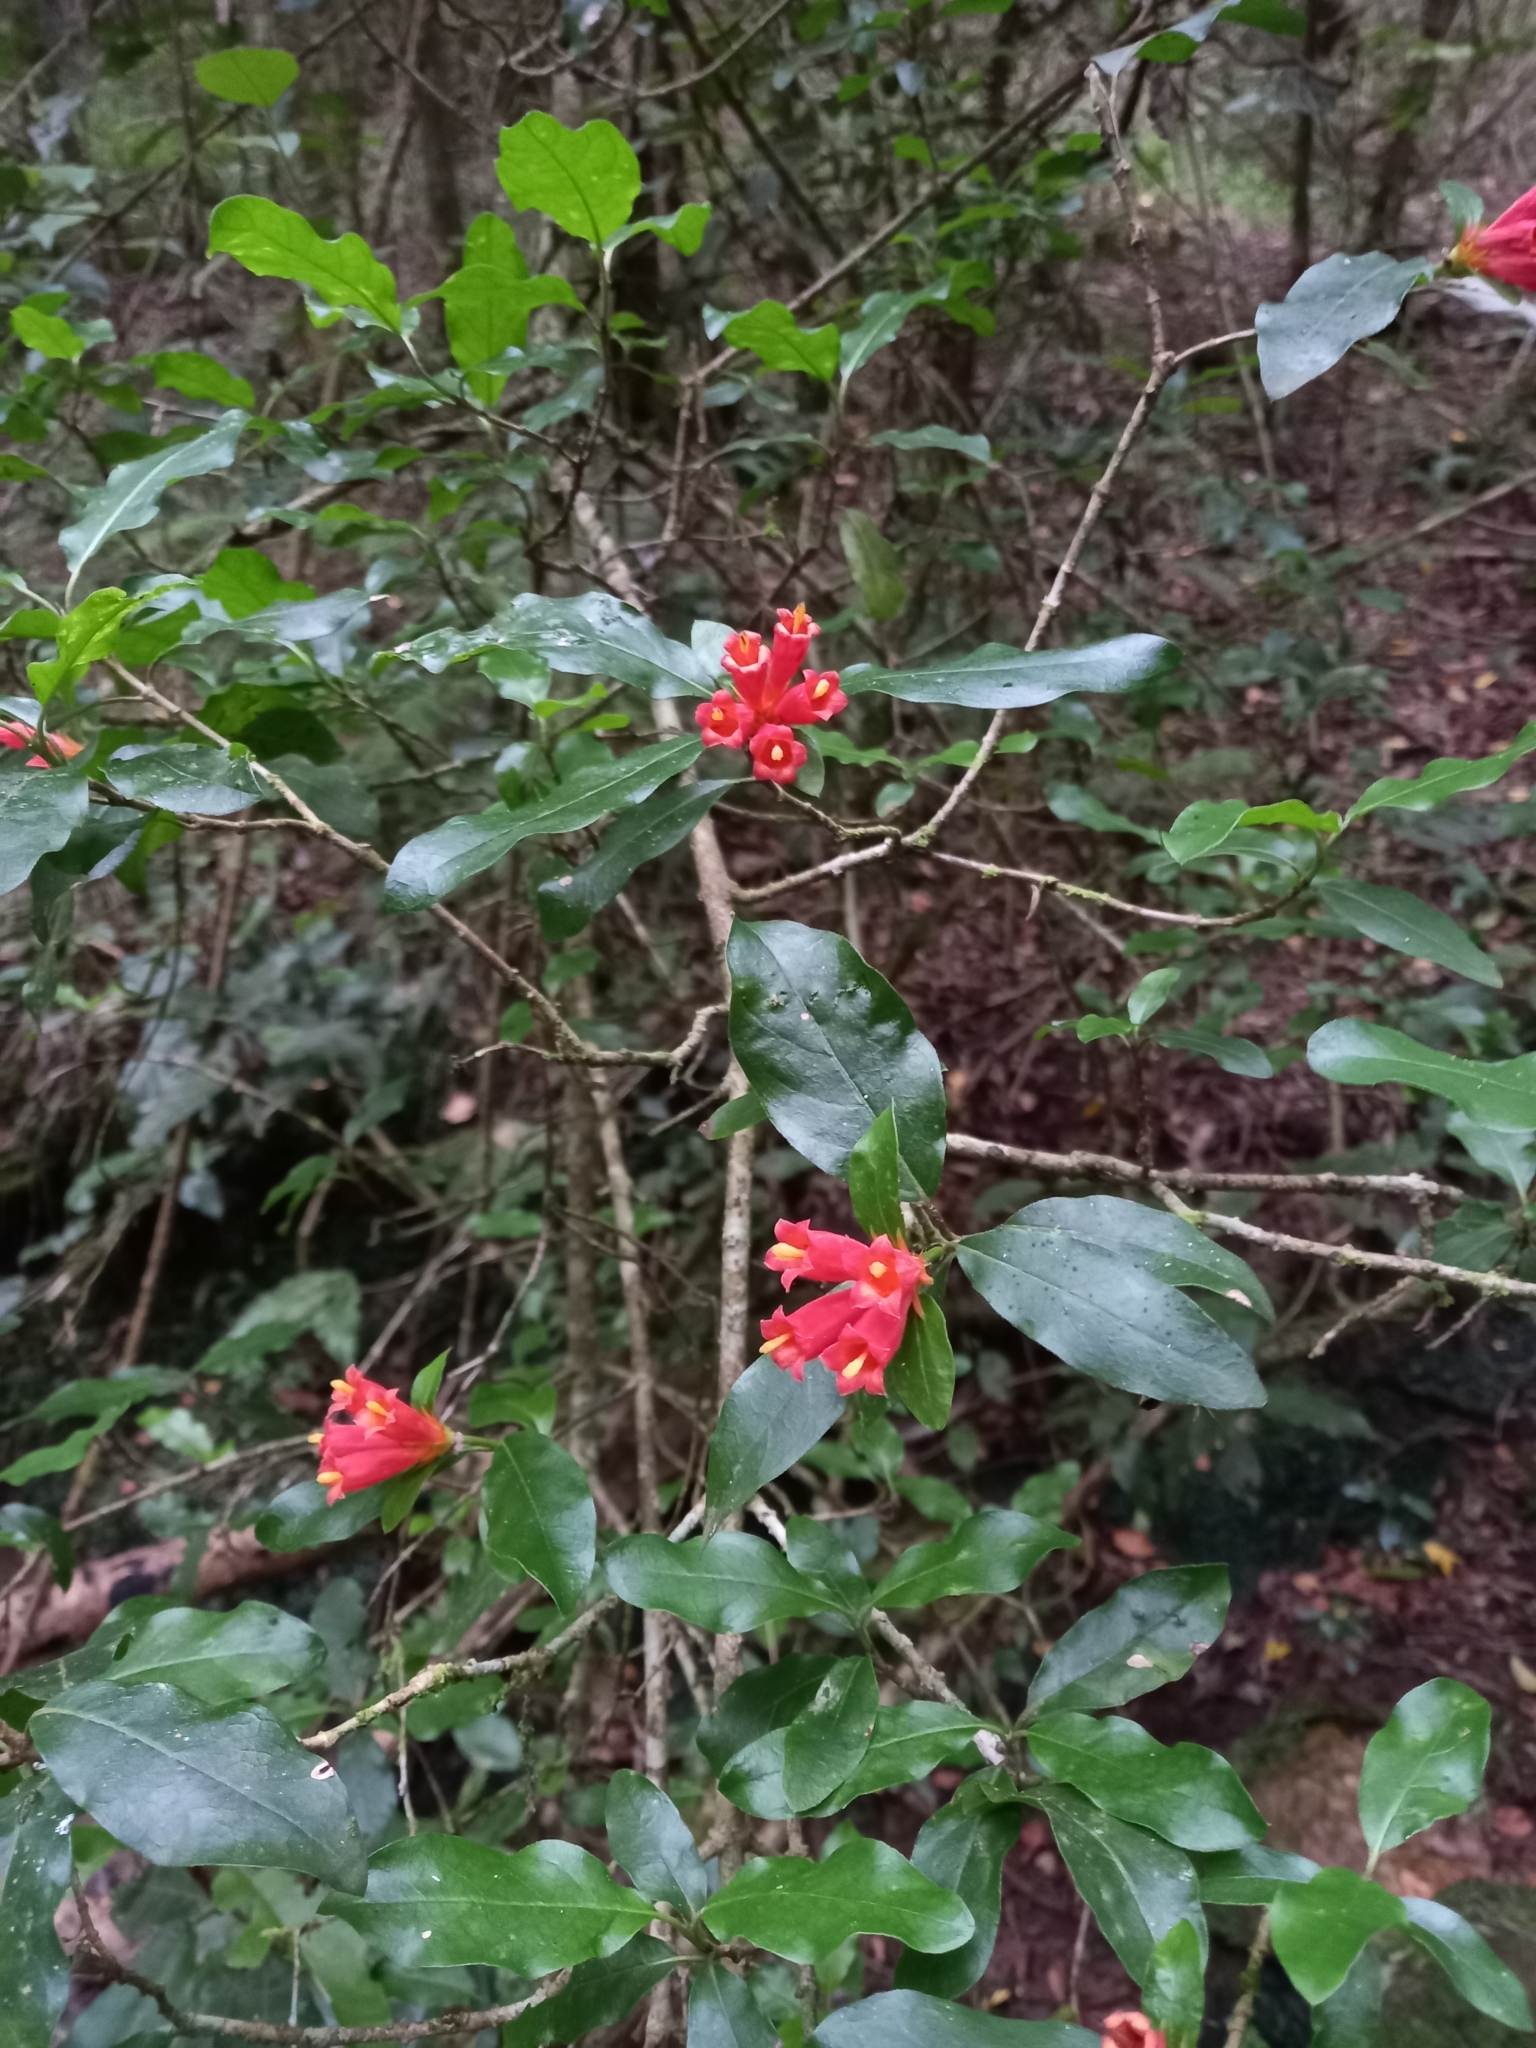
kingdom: Plantae
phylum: Tracheophyta
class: Magnoliopsida
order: Gentianales
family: Rubiaceae
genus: Burchellia
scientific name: Burchellia bubalina
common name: Wild pomegranate
